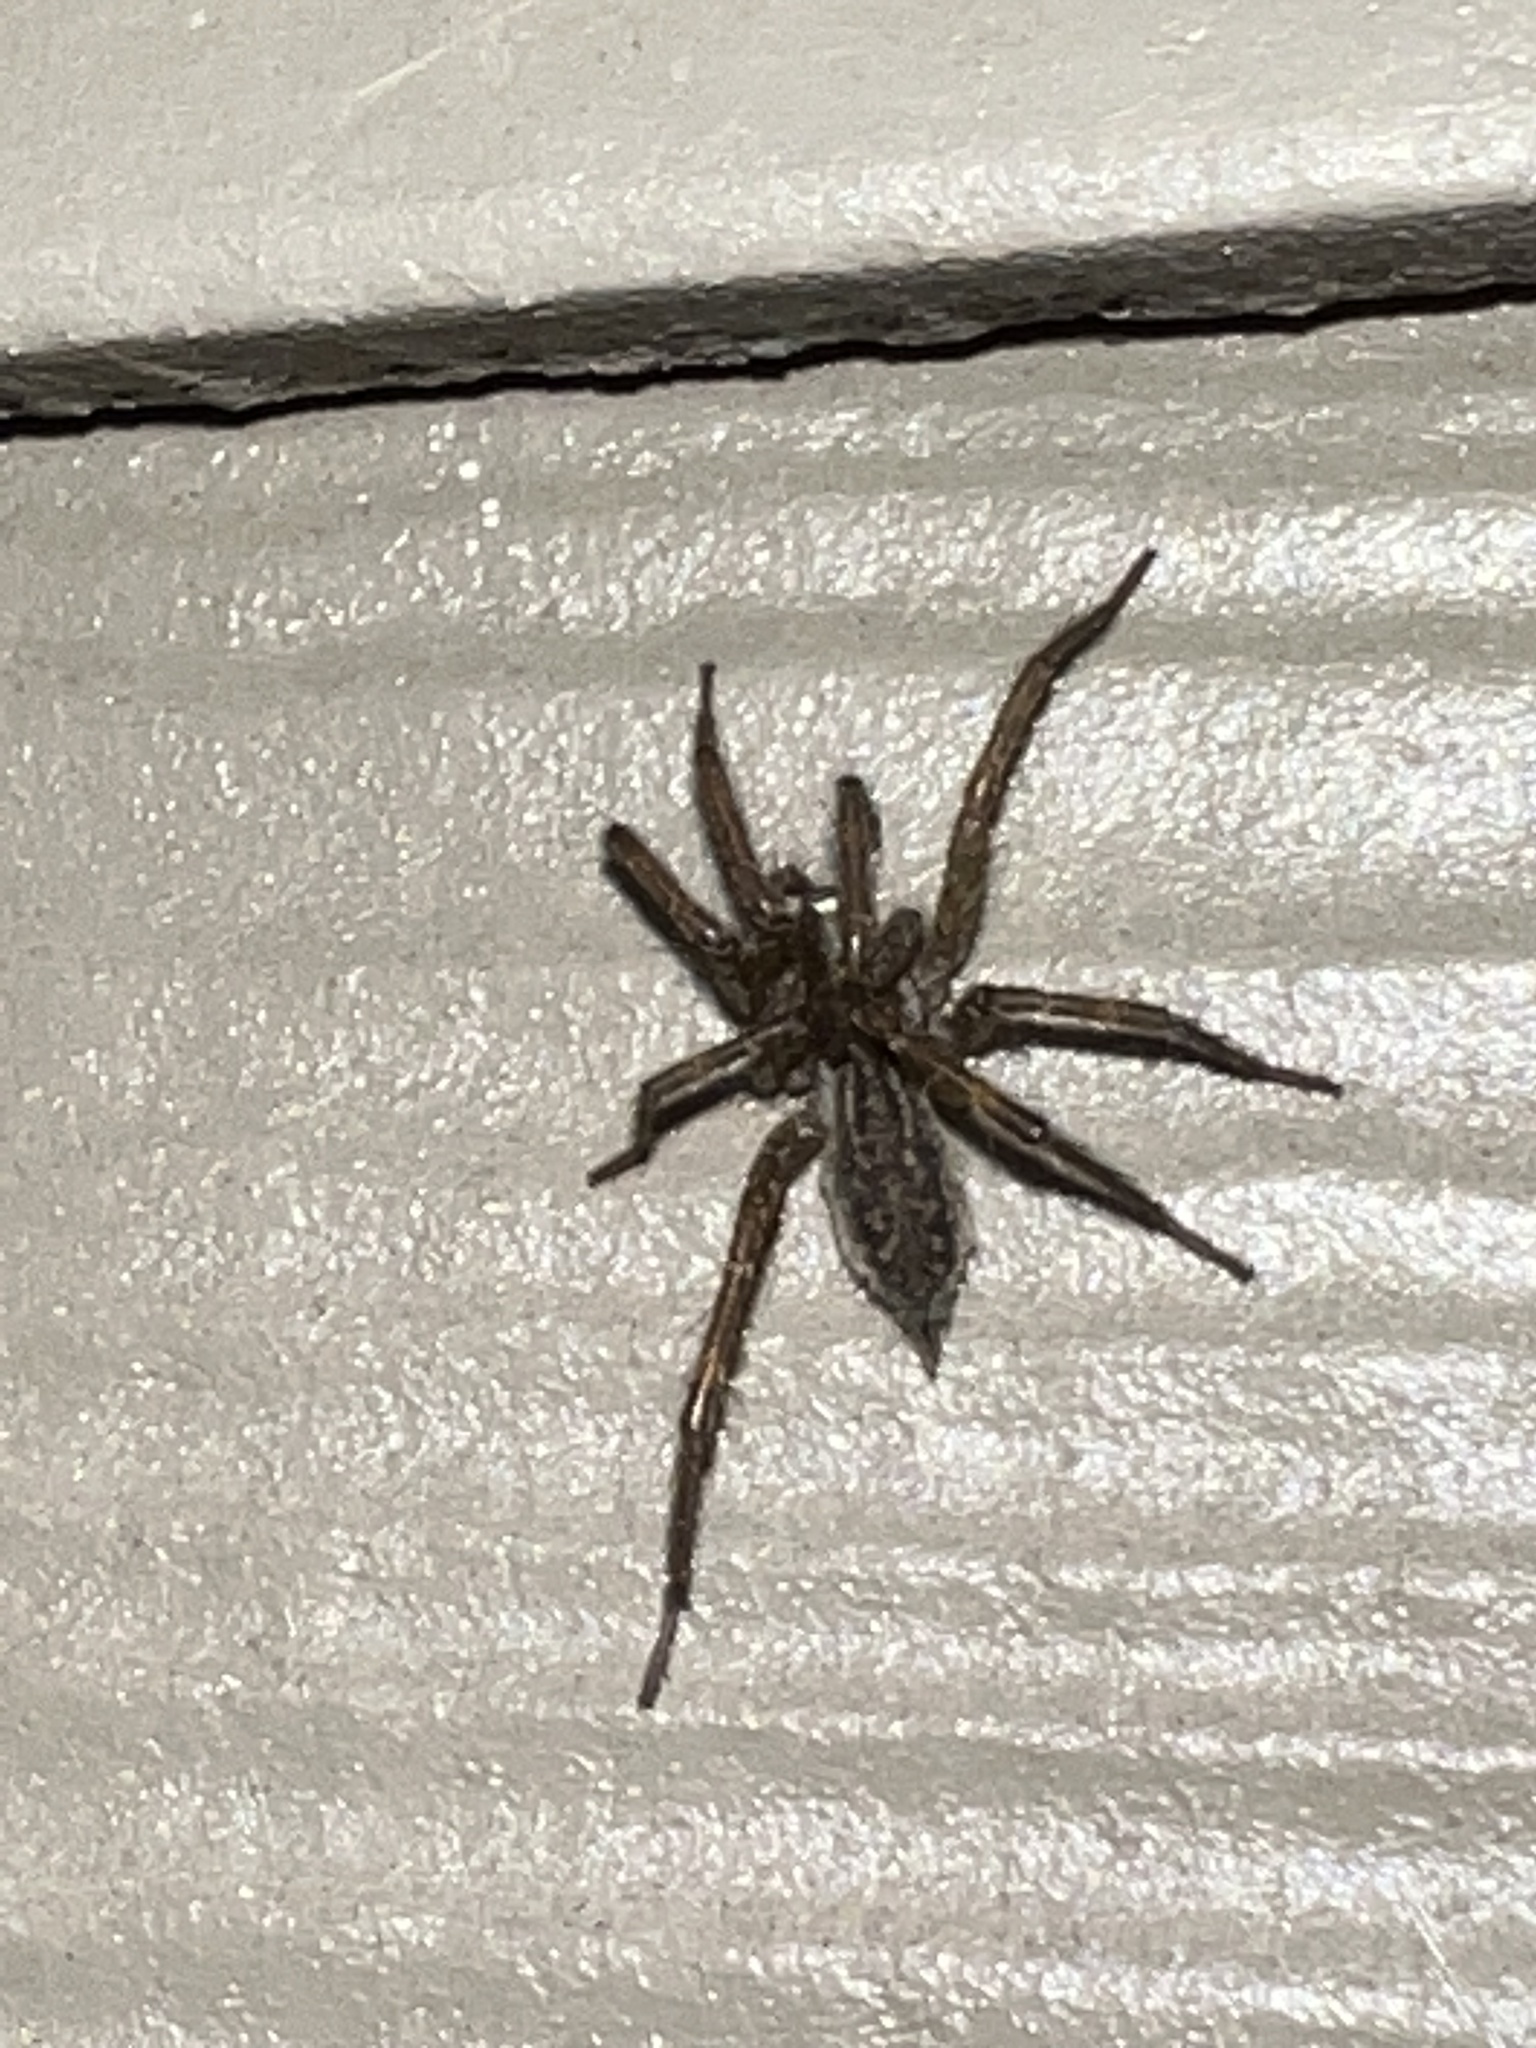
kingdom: Animalia
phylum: Arthropoda
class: Arachnida
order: Araneae
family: Agelenidae
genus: Agelenopsis
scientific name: Agelenopsis
